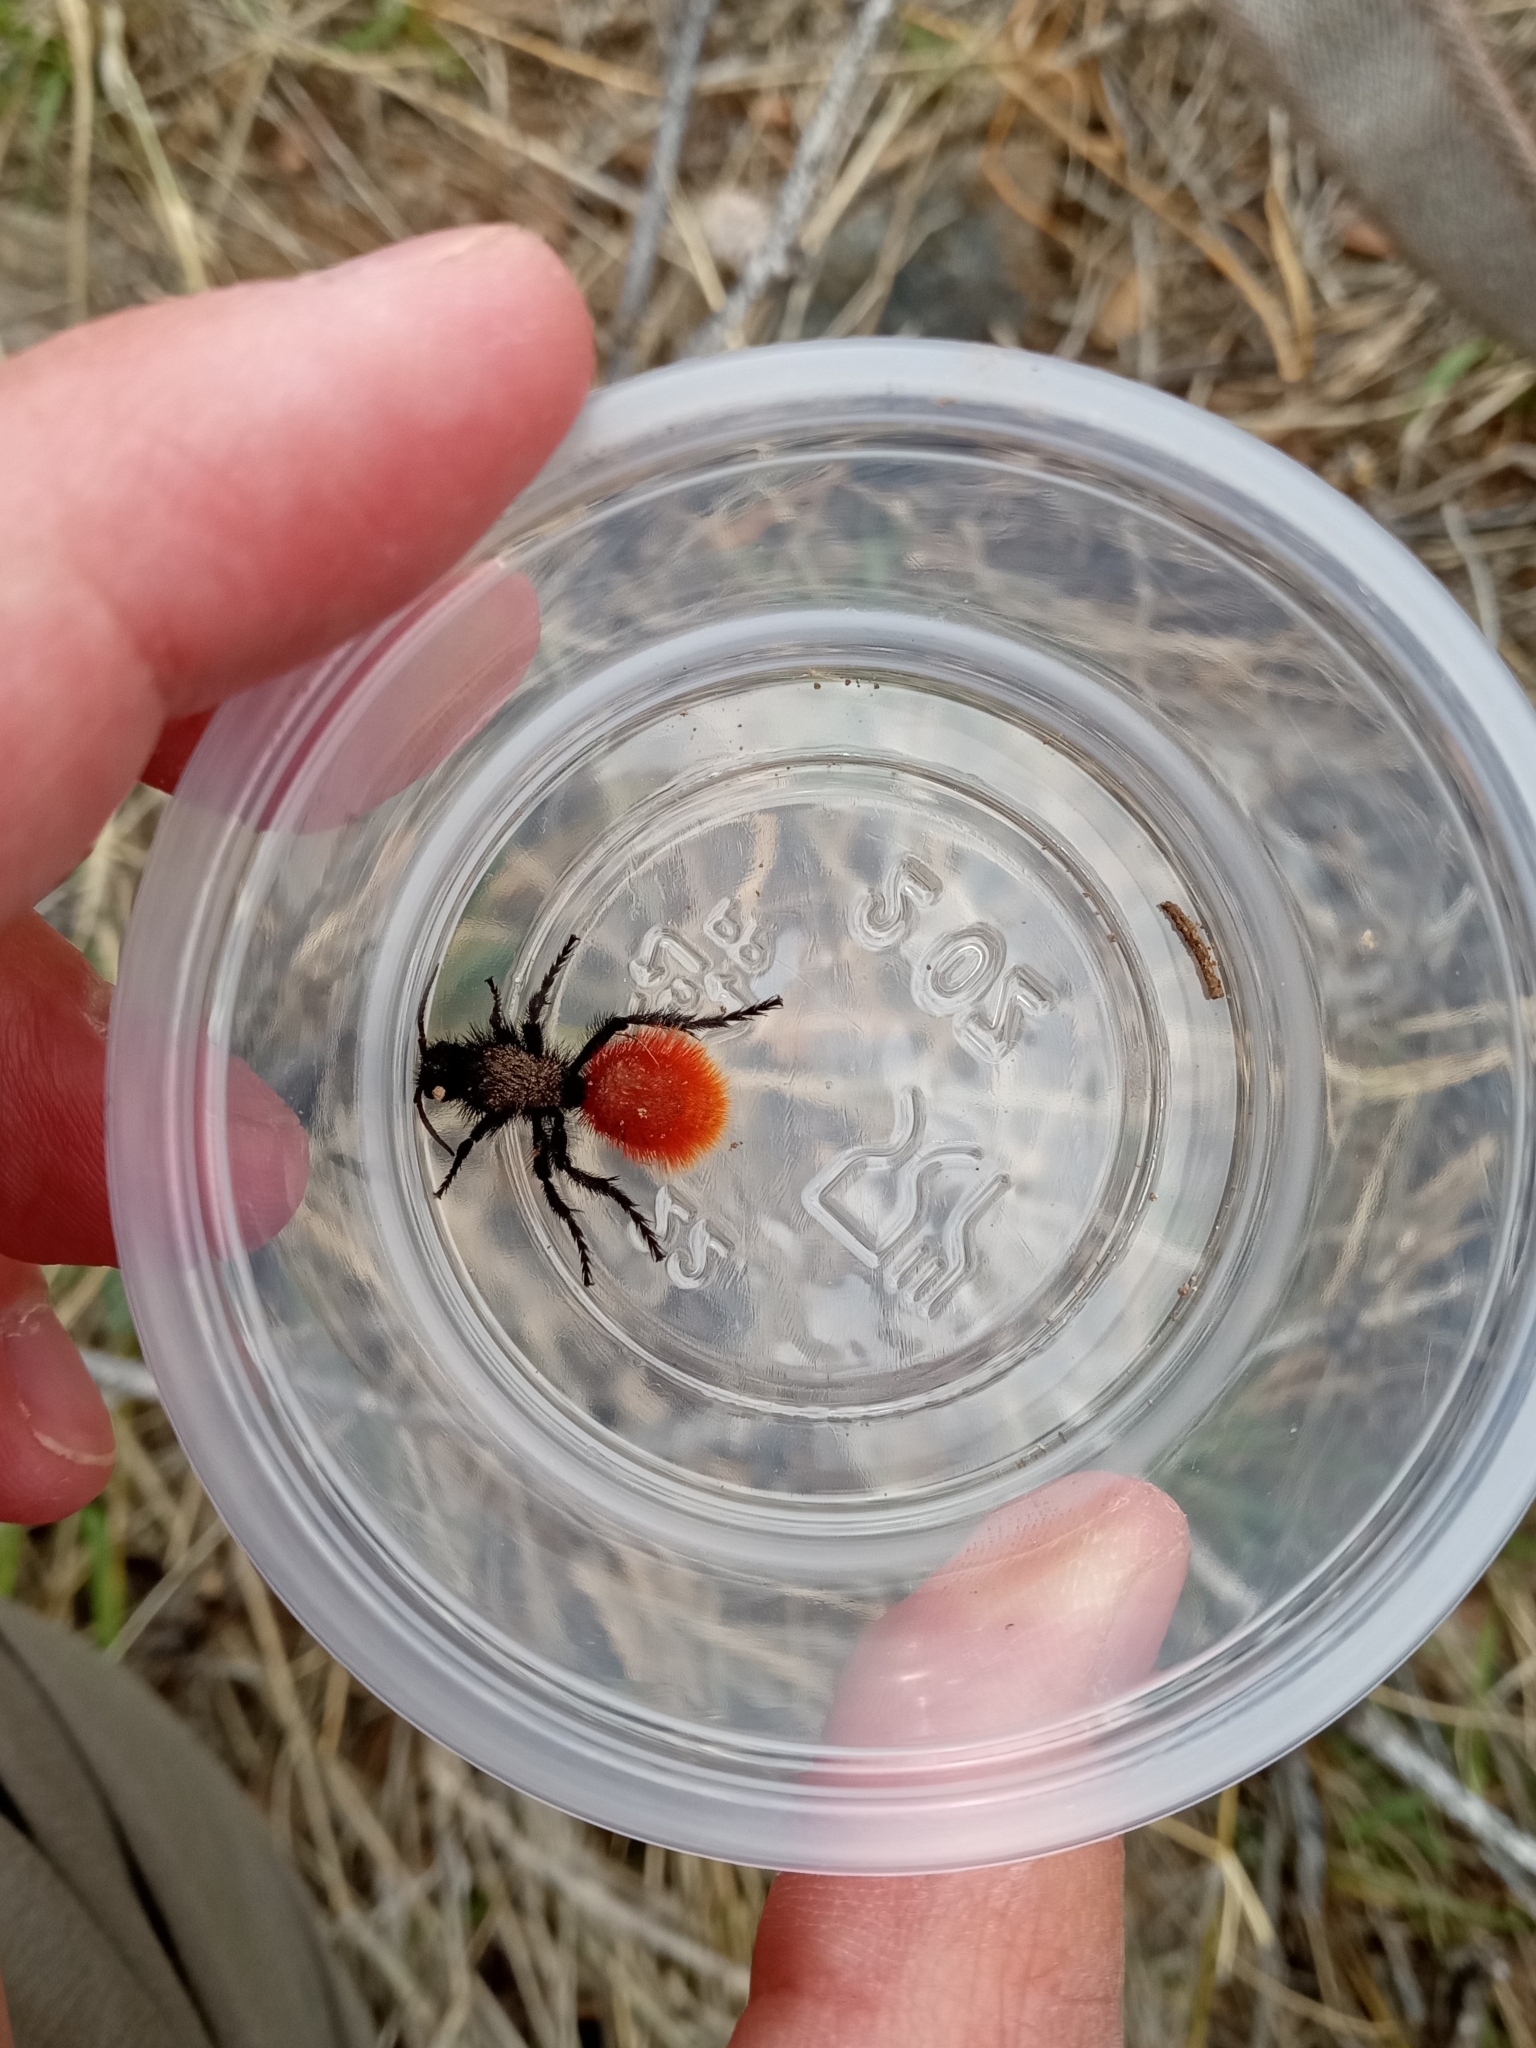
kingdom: Animalia
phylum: Arthropoda
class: Insecta
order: Hymenoptera
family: Mutillidae
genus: Dasymutilla
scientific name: Dasymutilla magnifica
